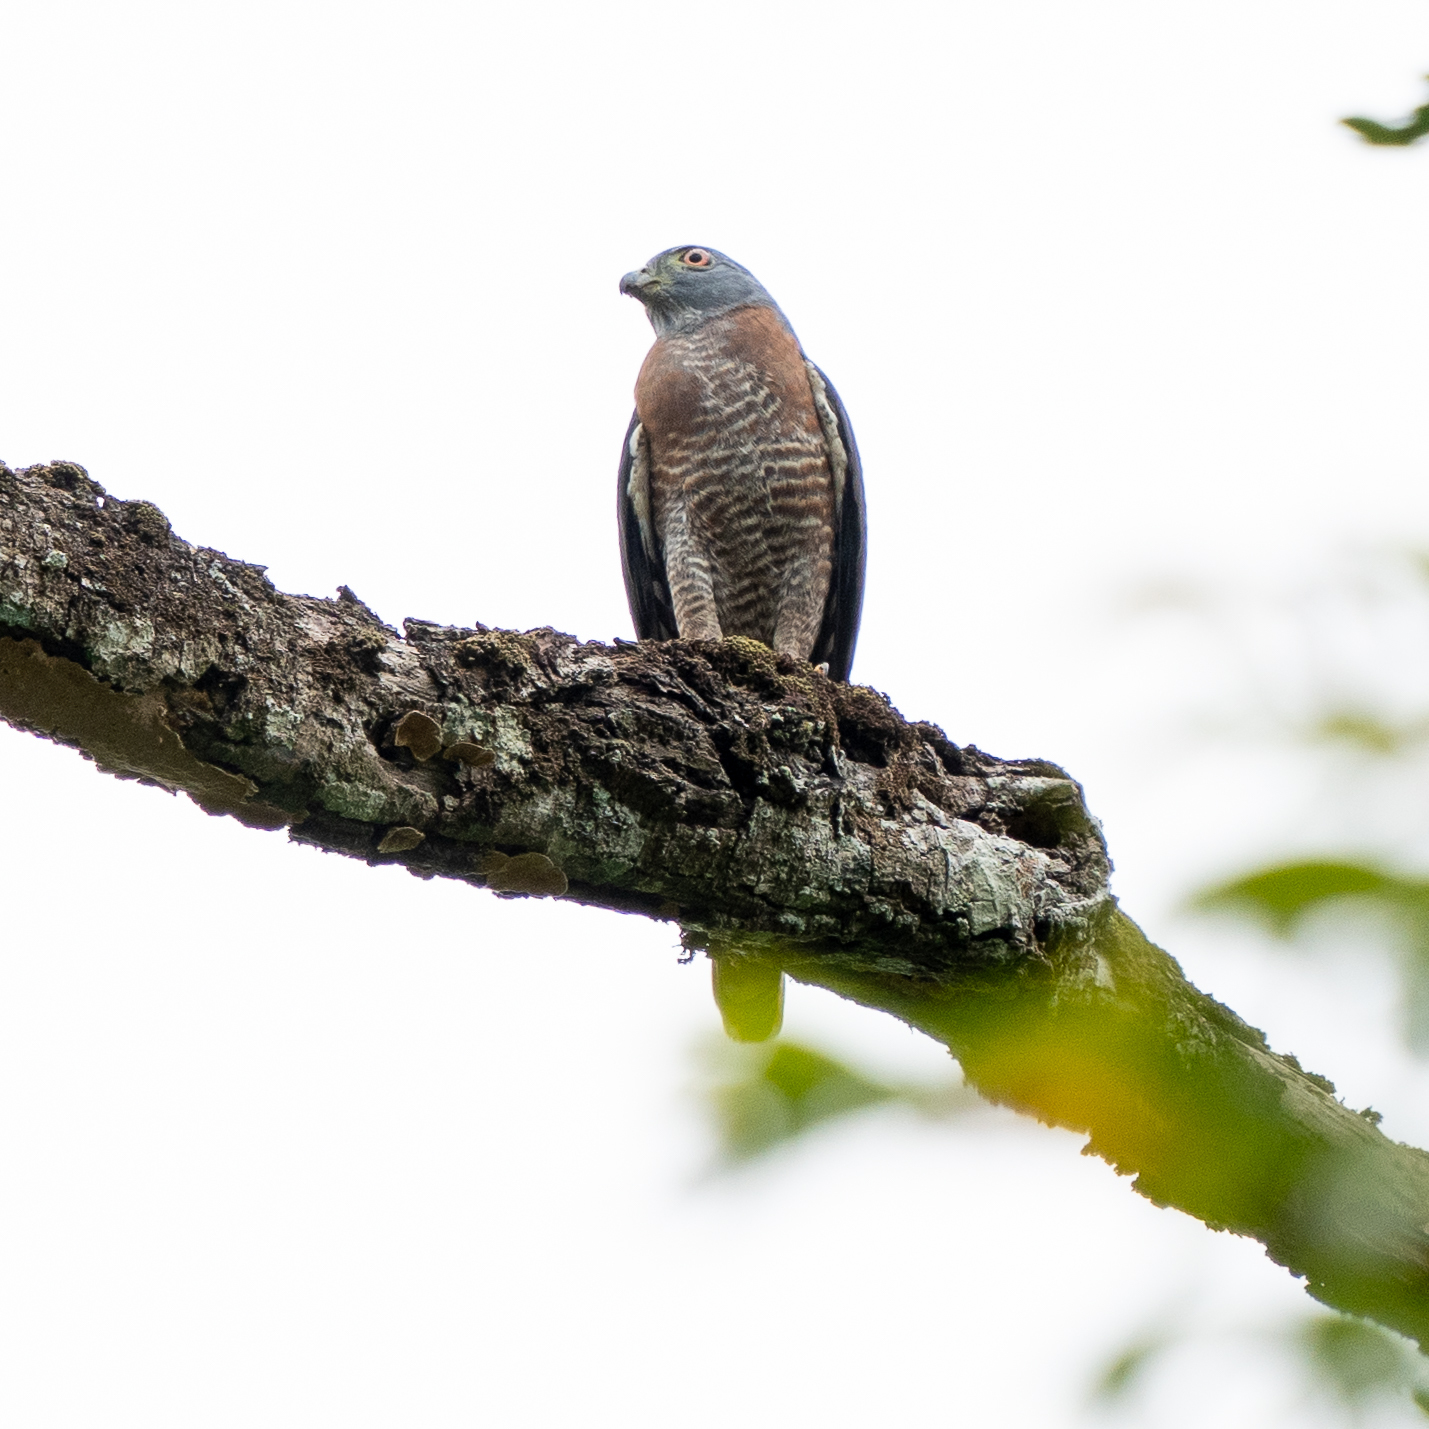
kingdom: Animalia
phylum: Chordata
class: Aves
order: Accipitriformes
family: Accipitridae
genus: Harpagus
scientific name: Harpagus bidentatus
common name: Double-toothed kite
